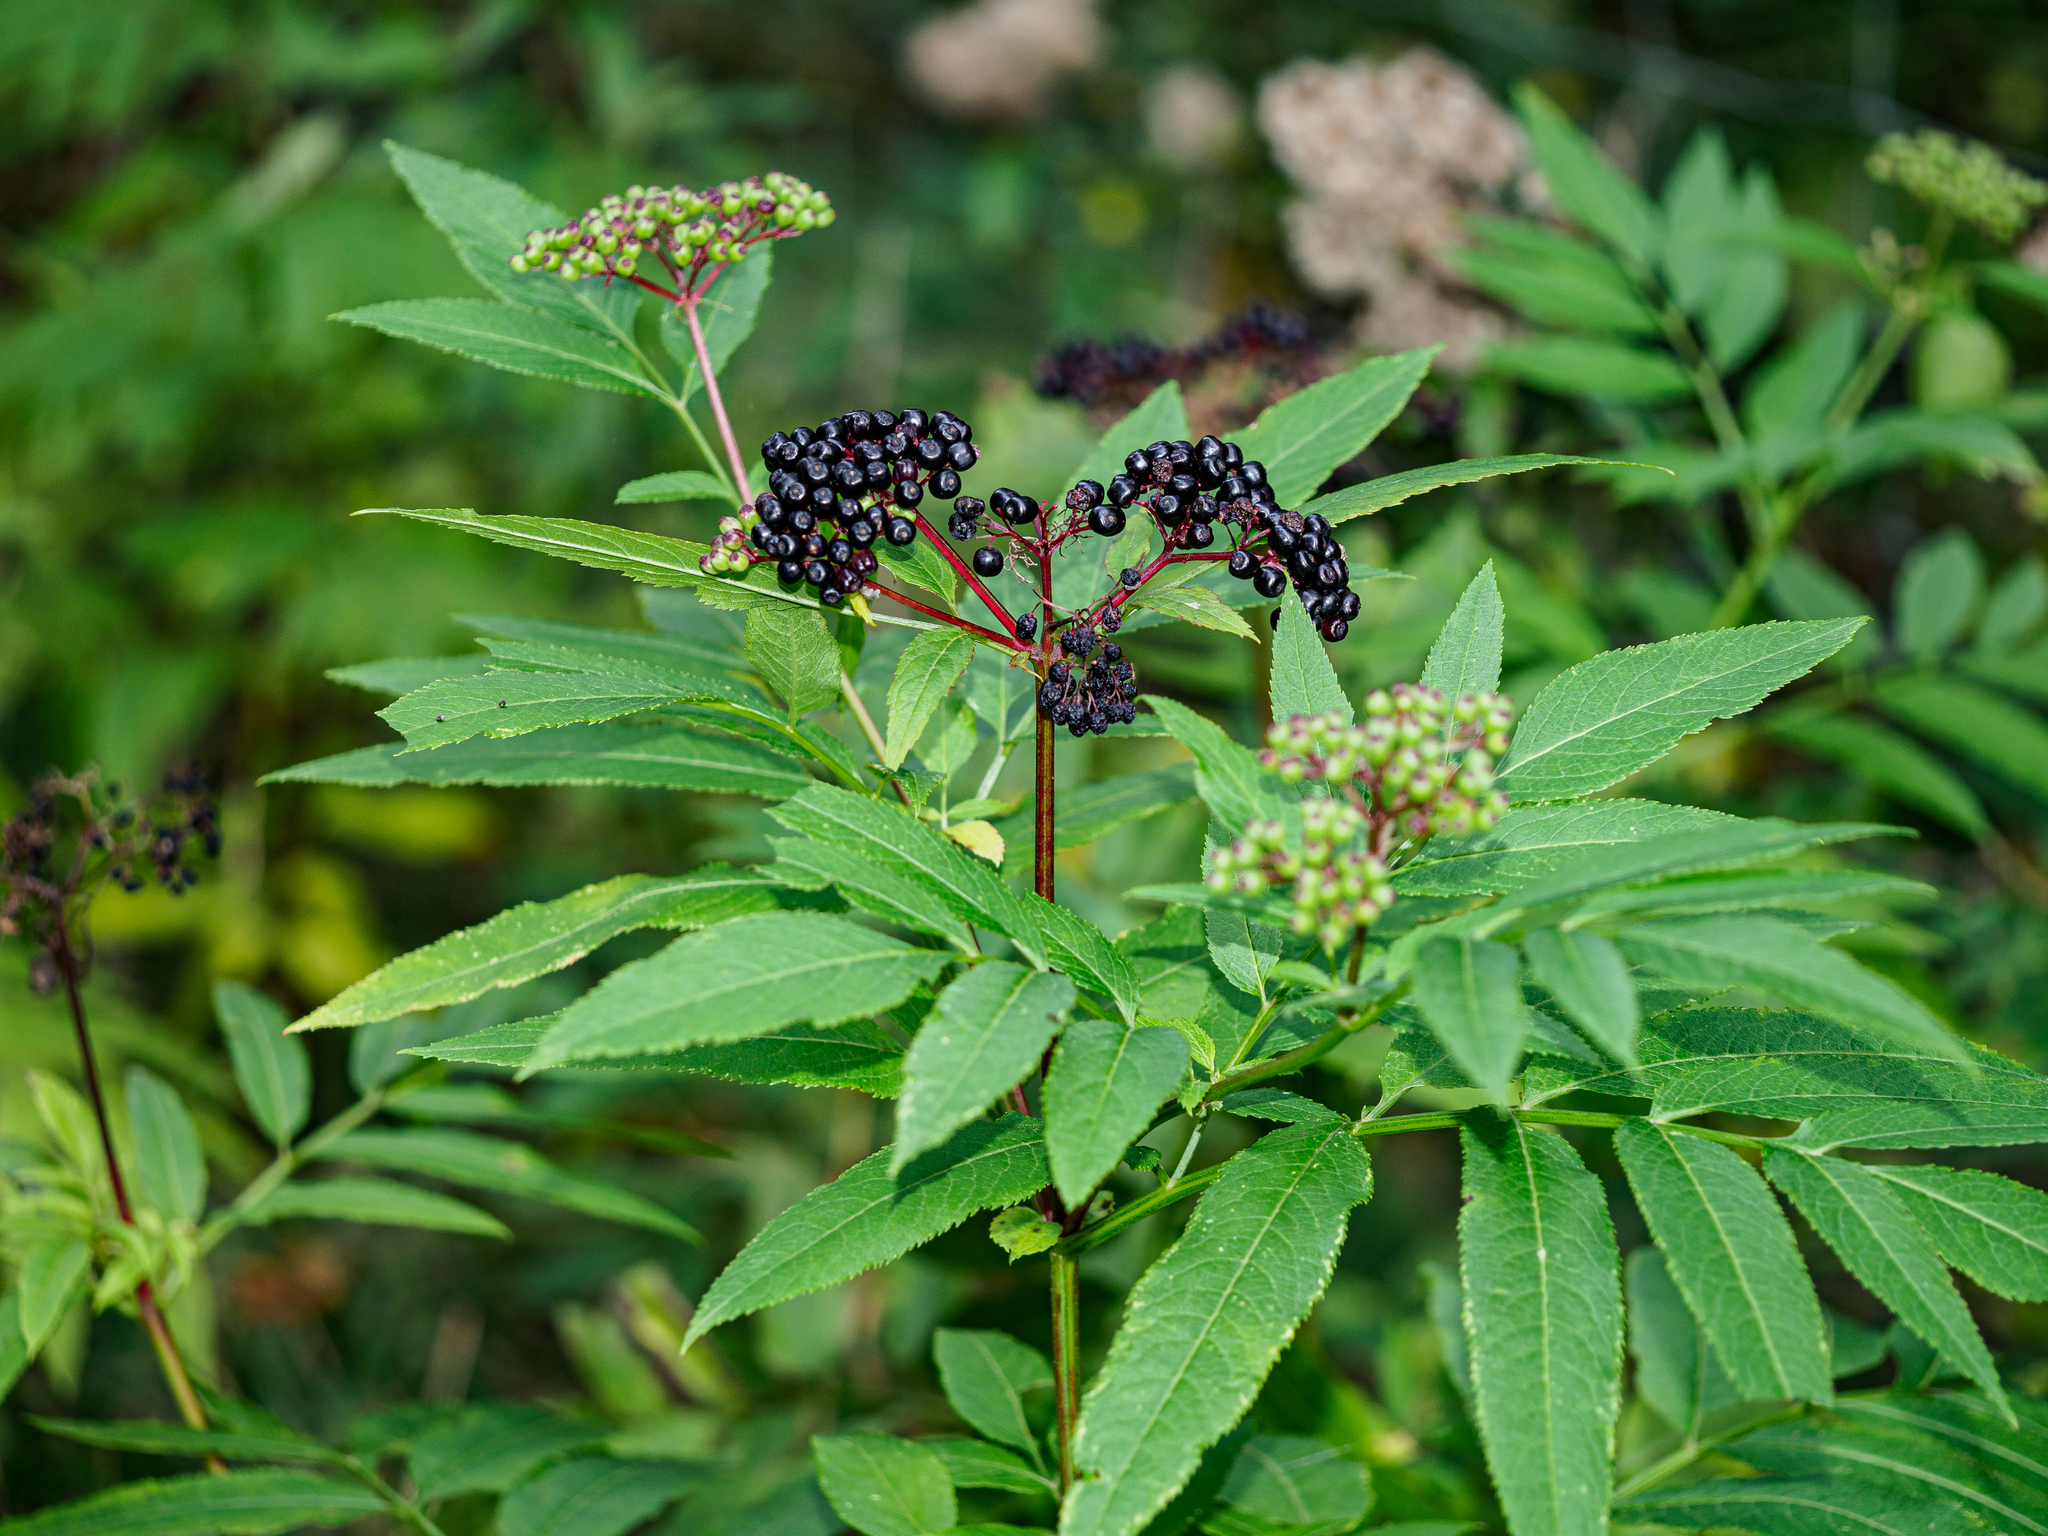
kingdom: Plantae
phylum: Tracheophyta
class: Magnoliopsida
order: Dipsacales
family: Viburnaceae
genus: Sambucus
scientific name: Sambucus ebulus
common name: Dwarf elder
